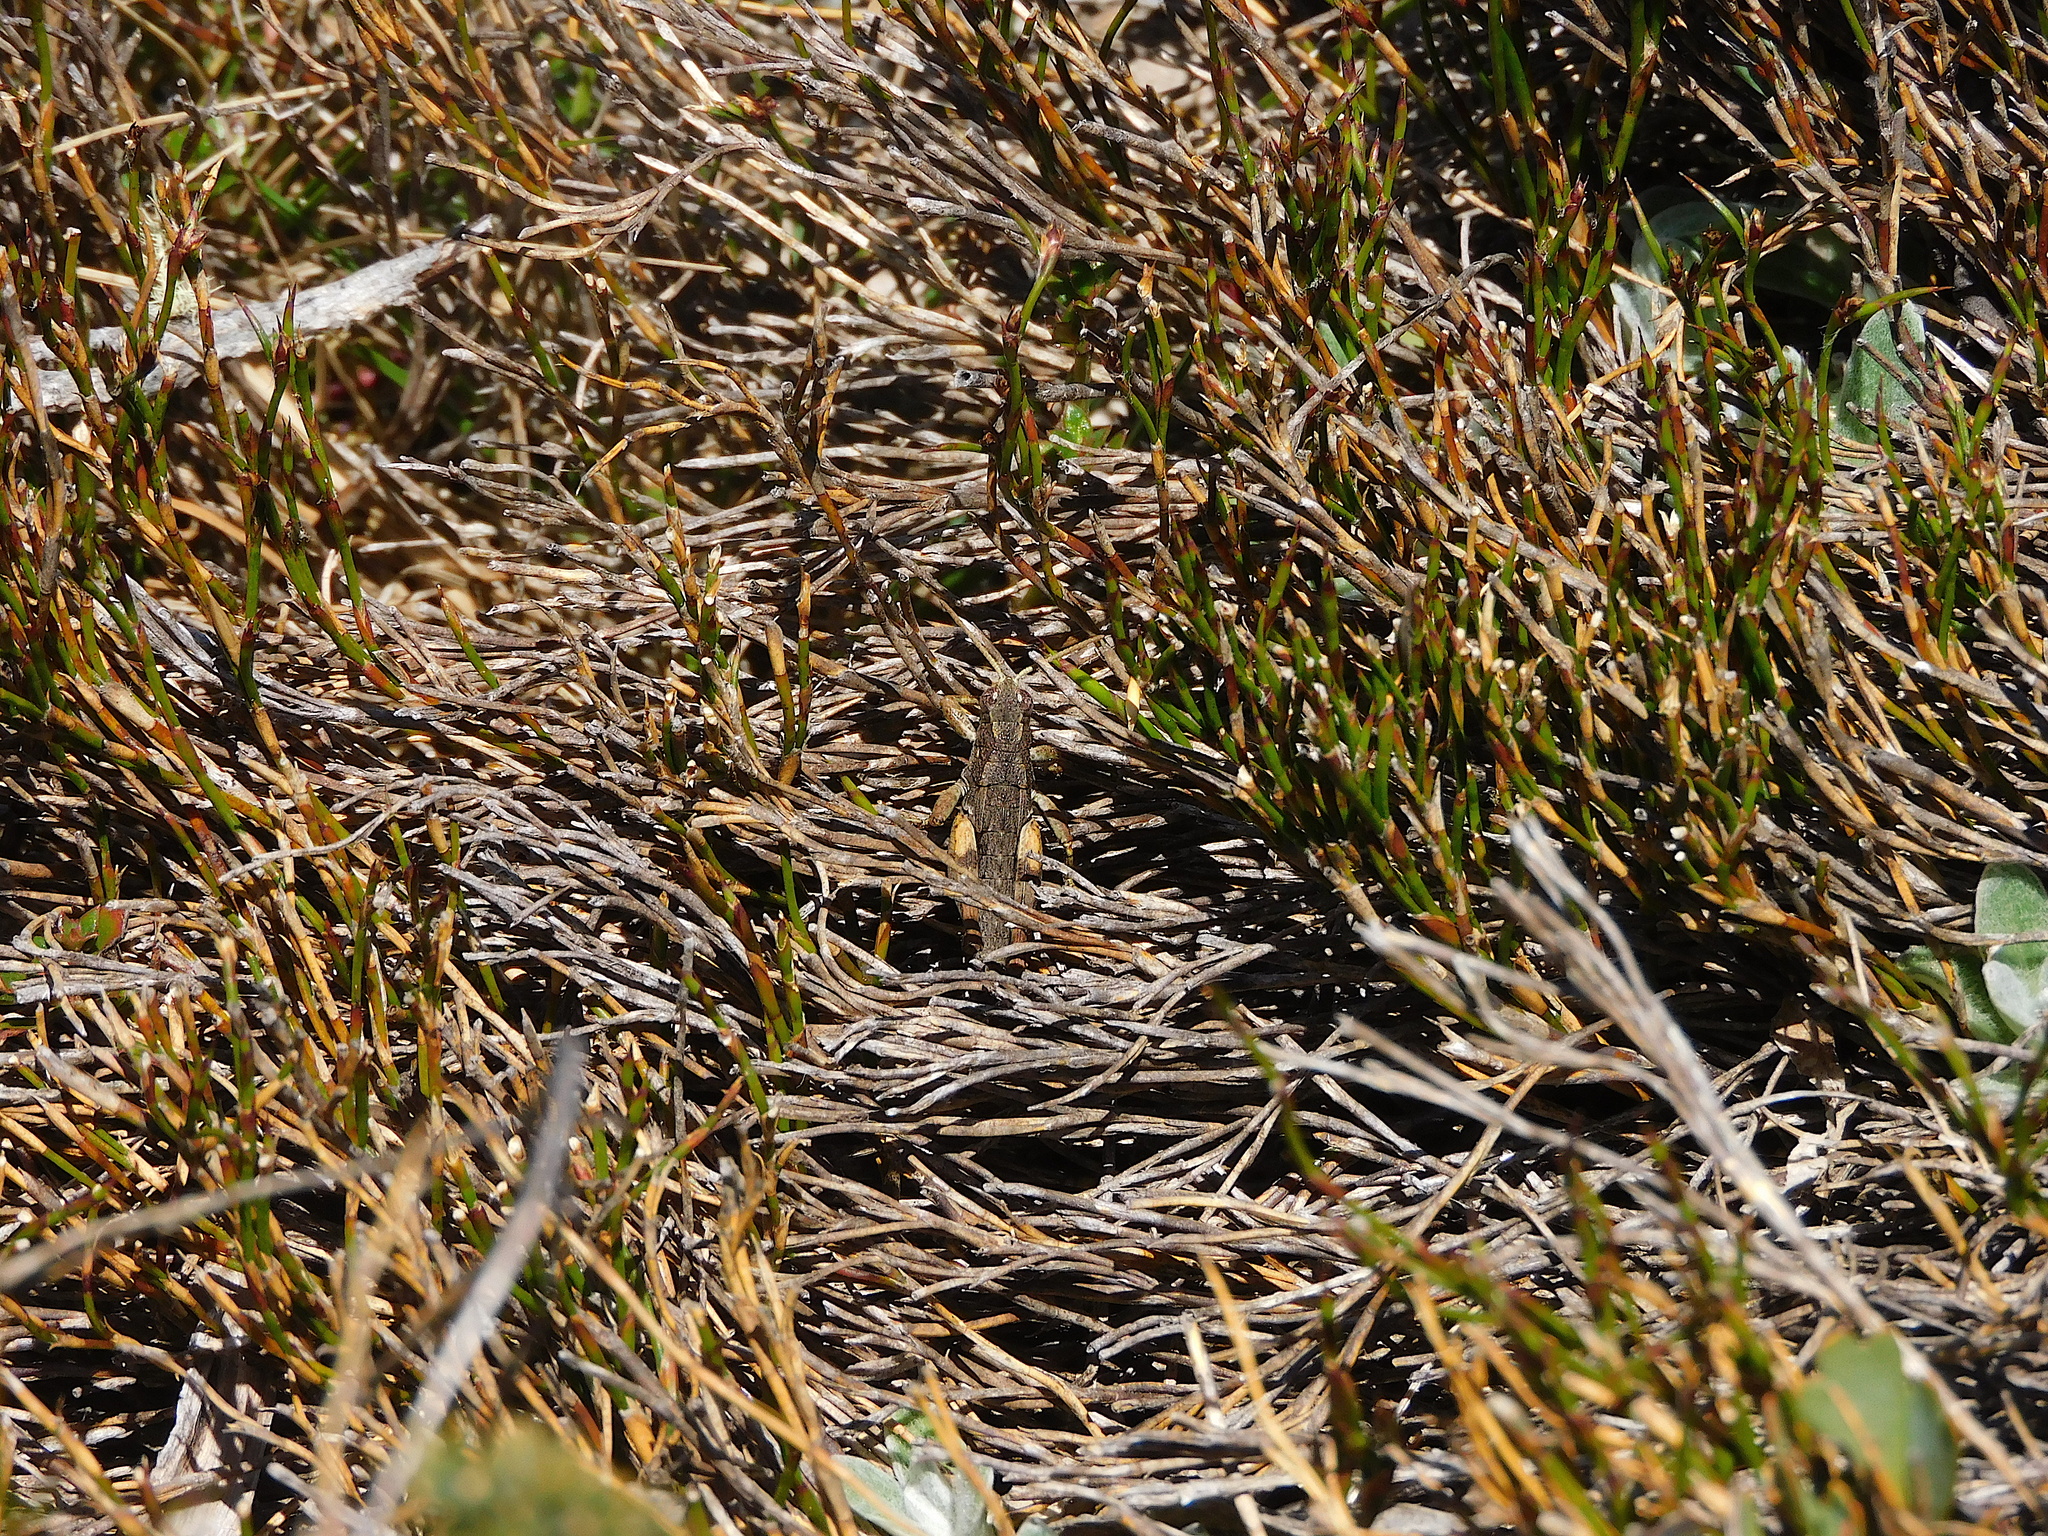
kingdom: Animalia
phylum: Arthropoda
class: Insecta
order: Orthoptera
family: Acrididae
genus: Tasmaniacris
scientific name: Tasmaniacris tasmaniensis
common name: Tasmanian grasshopper
